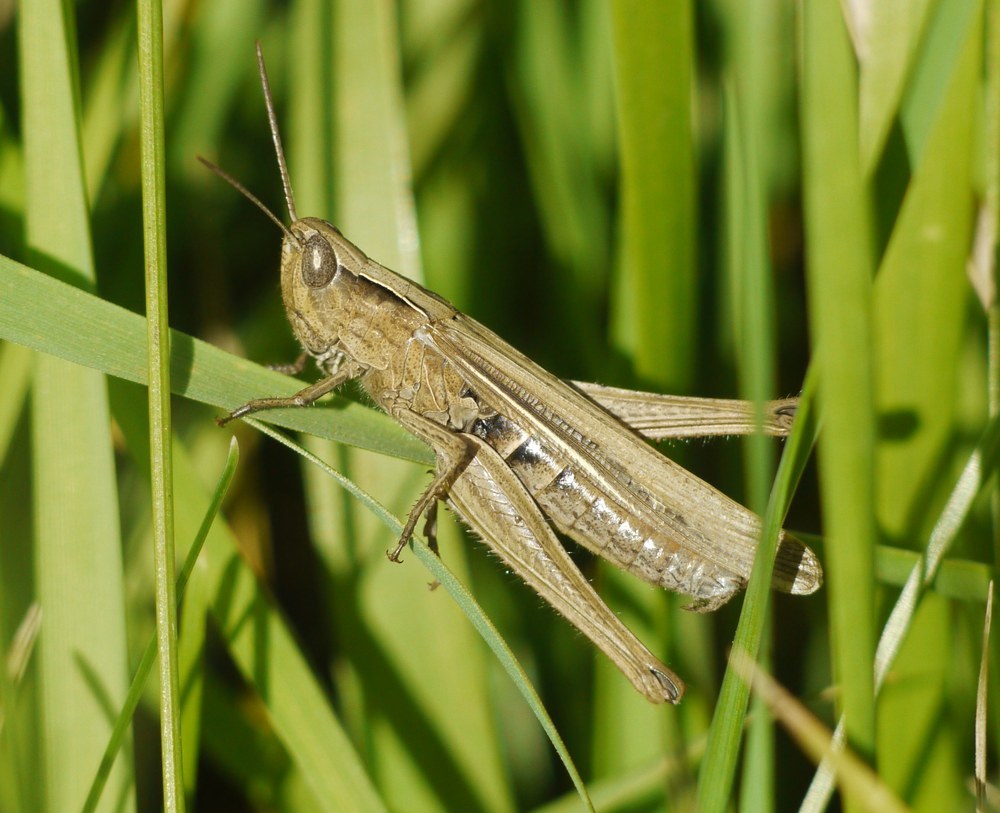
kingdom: Animalia
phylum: Arthropoda
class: Insecta
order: Orthoptera
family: Acrididae
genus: Chorthippus
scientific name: Chorthippus loratus
